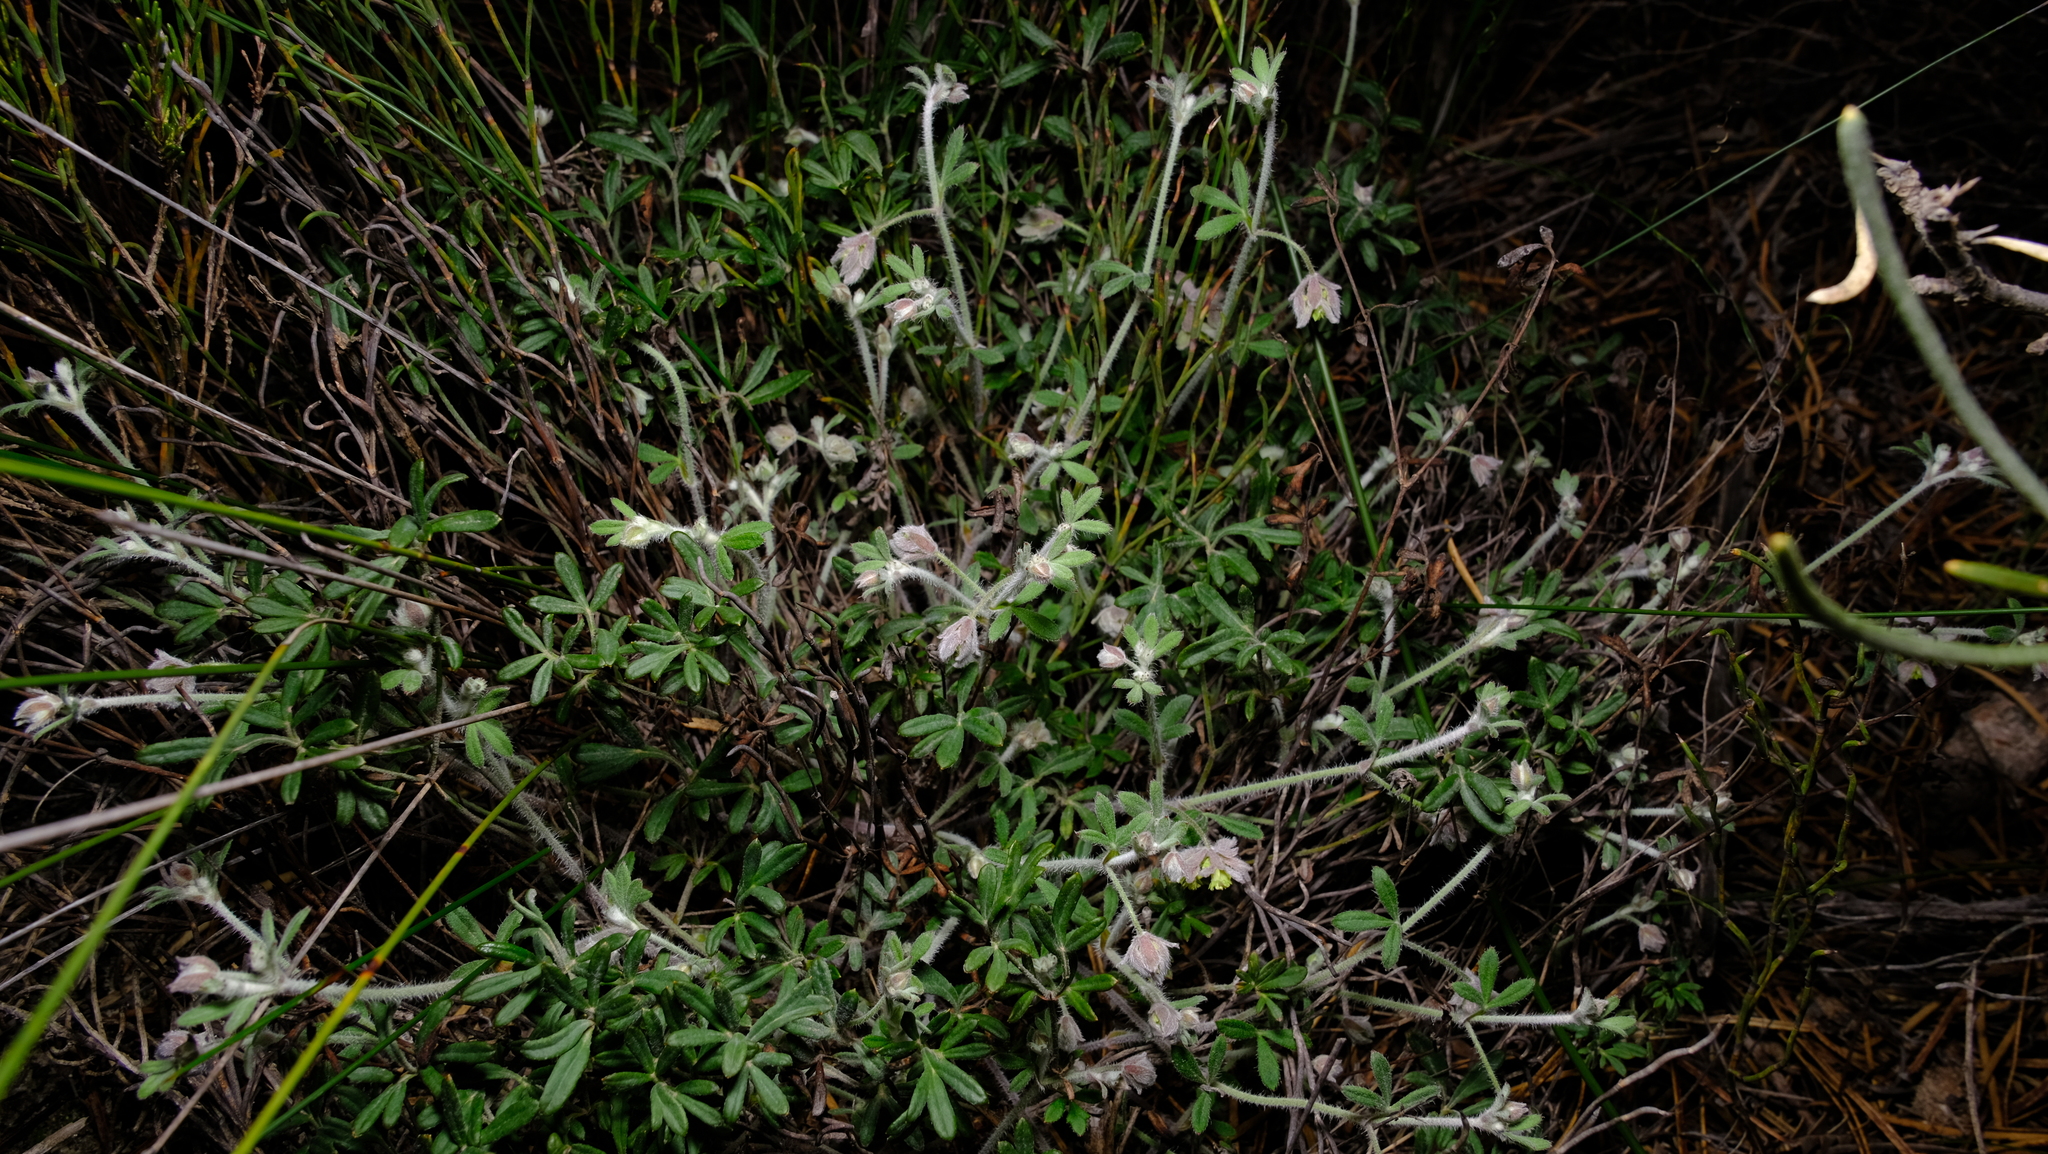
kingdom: Plantae
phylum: Tracheophyta
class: Magnoliopsida
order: Apiales
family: Apiaceae
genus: Xanthosia
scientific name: Xanthosia huegelii
